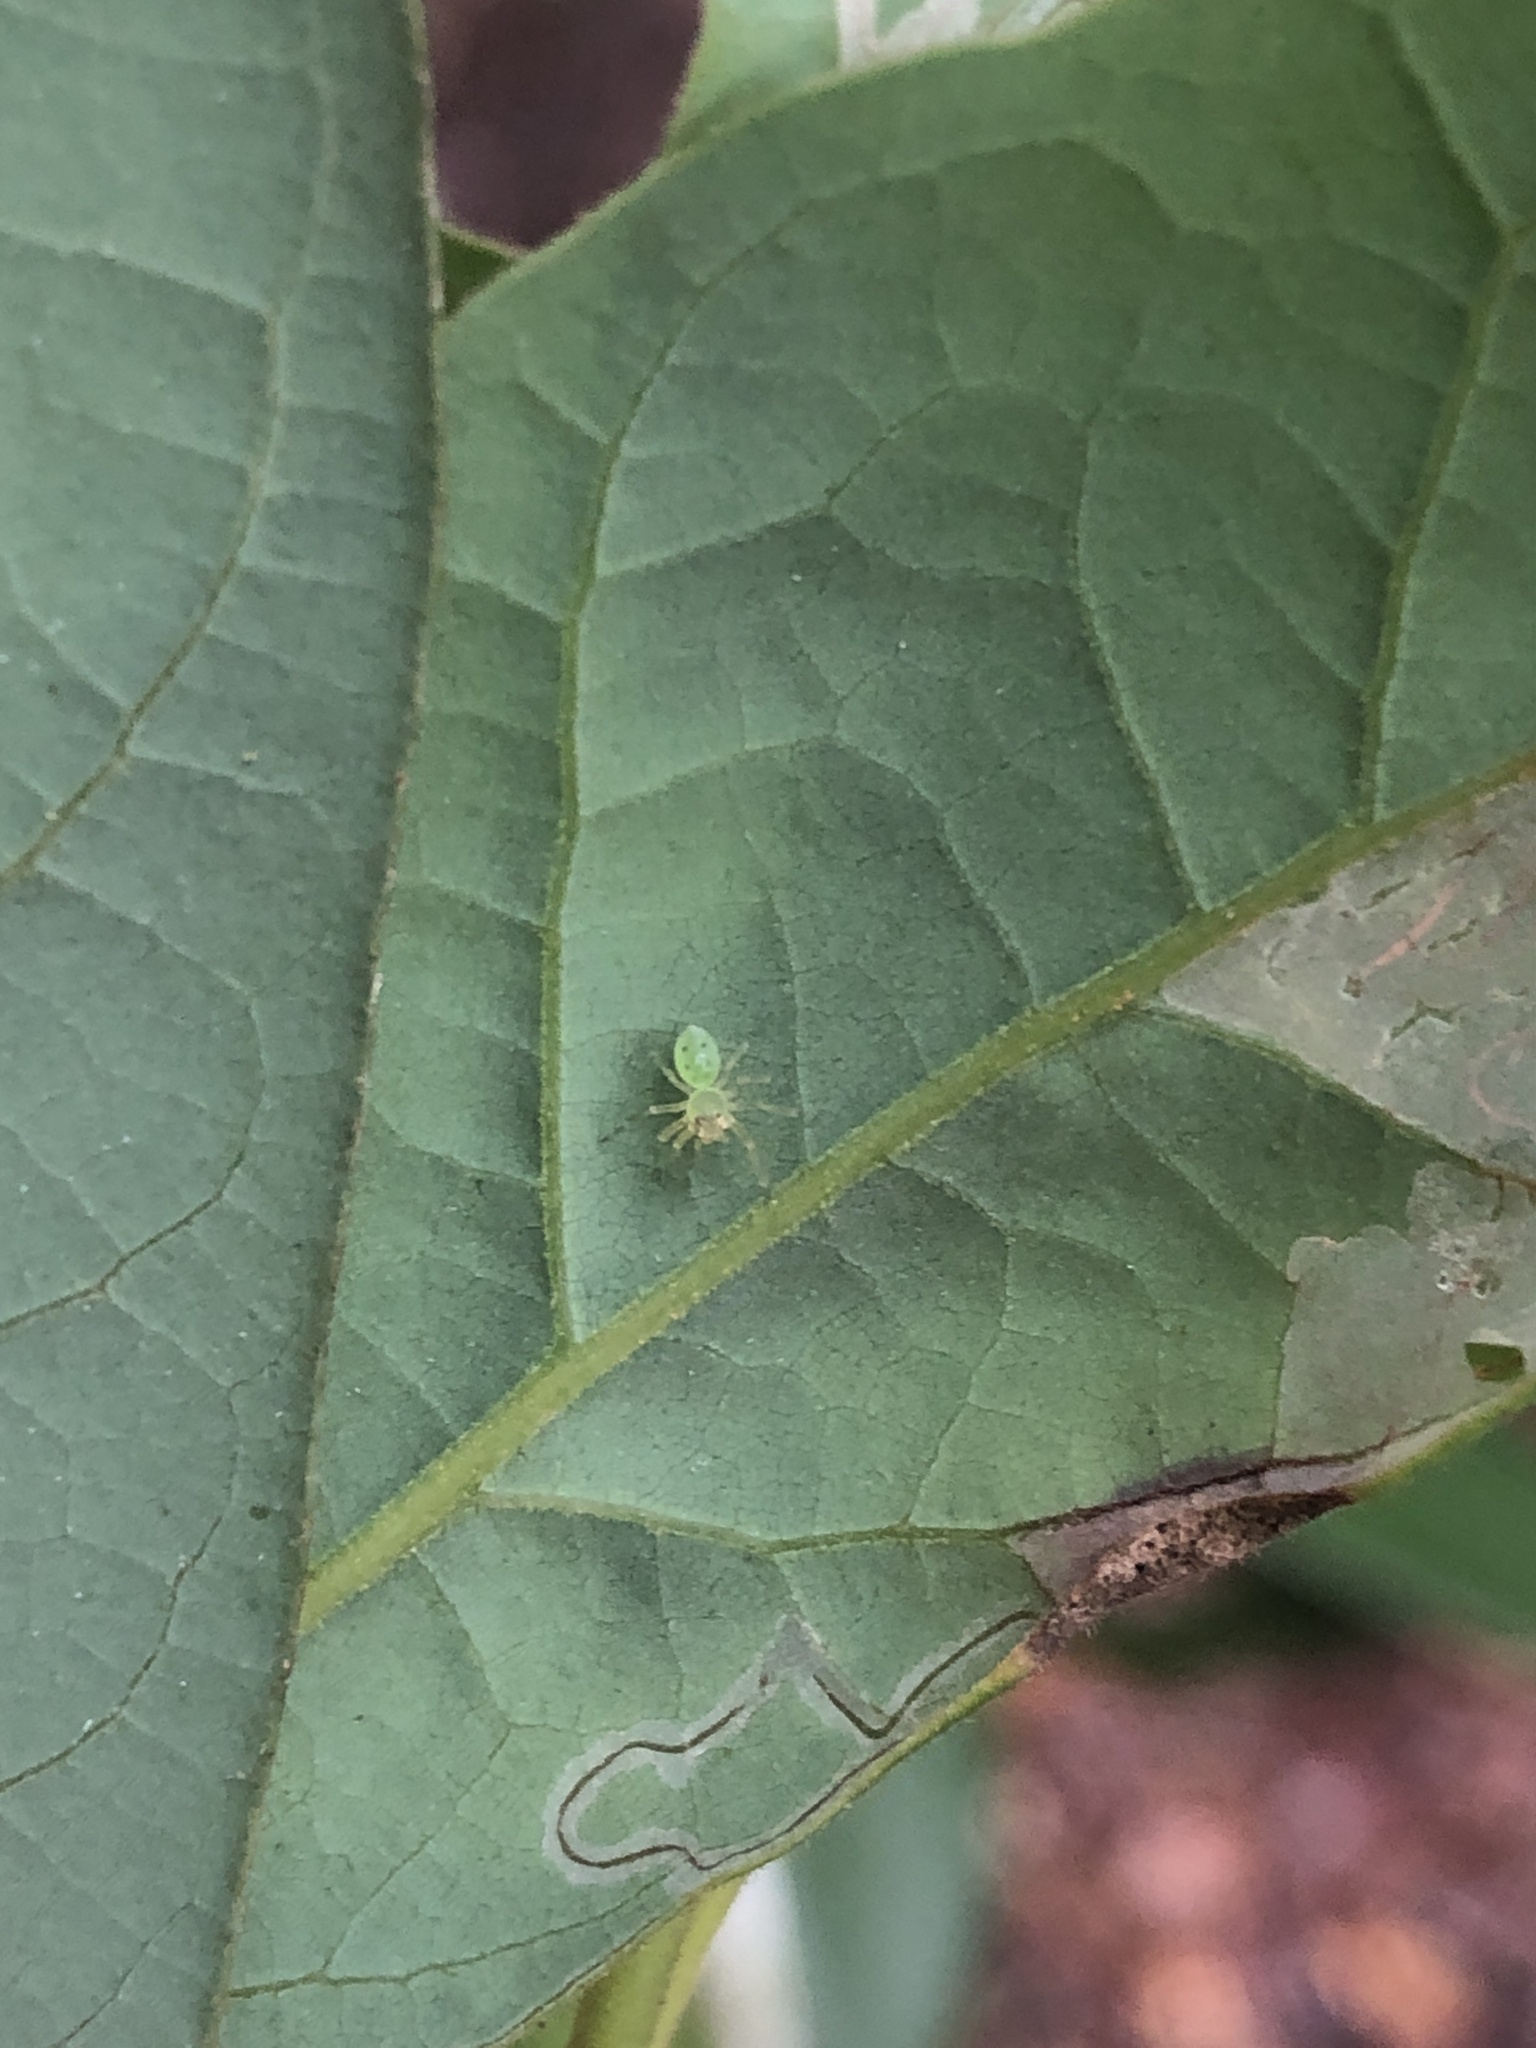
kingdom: Animalia
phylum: Arthropoda
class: Arachnida
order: Araneae
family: Salticidae
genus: Lyssomanes
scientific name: Lyssomanes viridis
